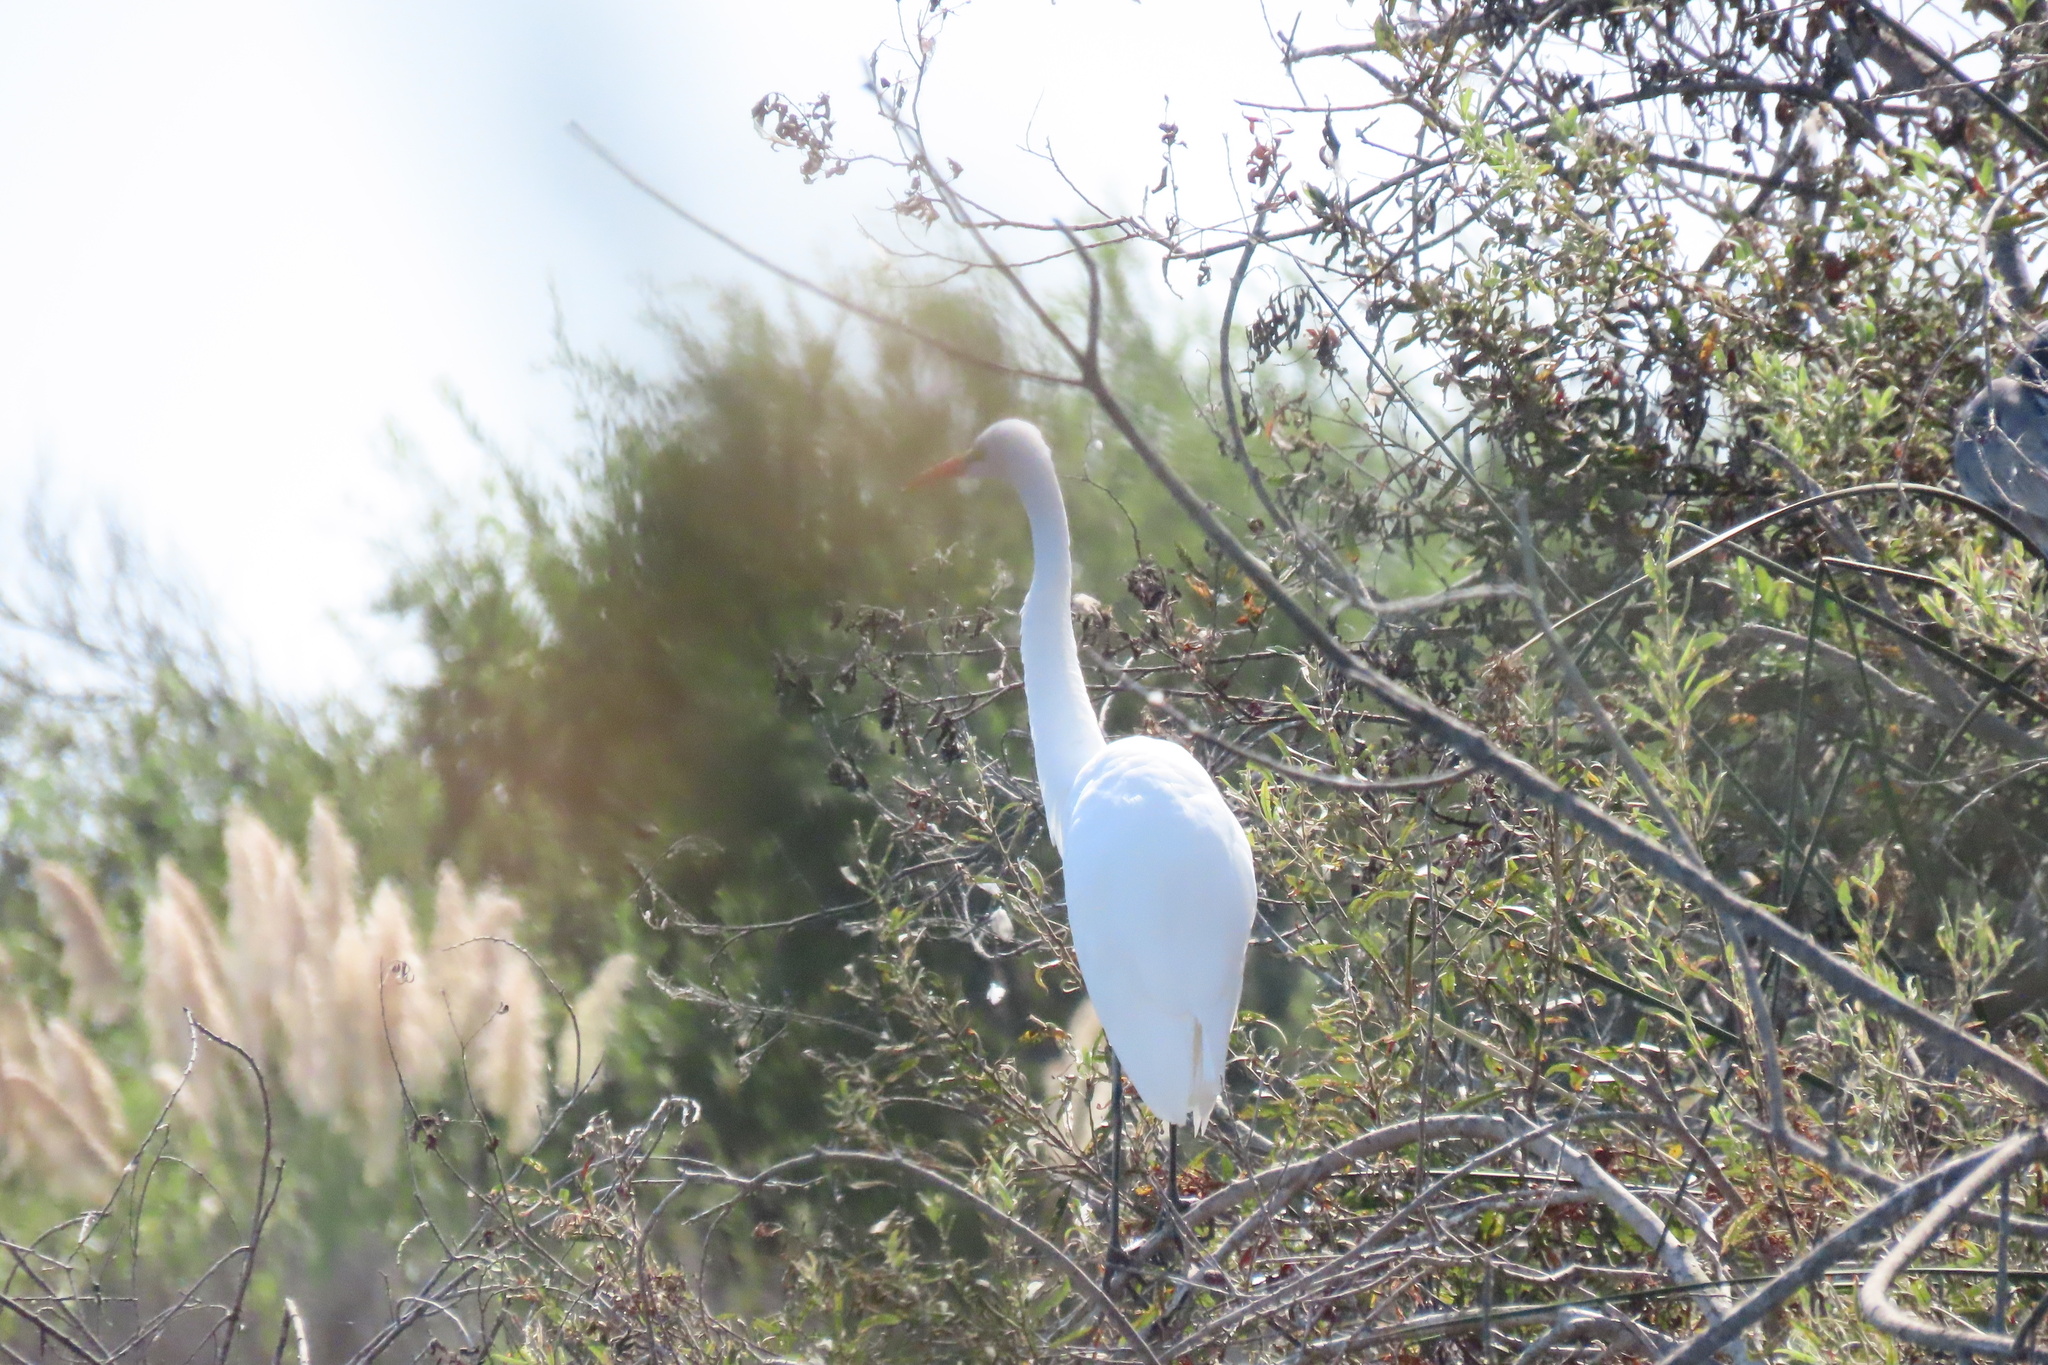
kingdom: Animalia
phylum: Chordata
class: Aves
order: Pelecaniformes
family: Ardeidae
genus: Ardea
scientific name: Ardea alba
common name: Great egret
